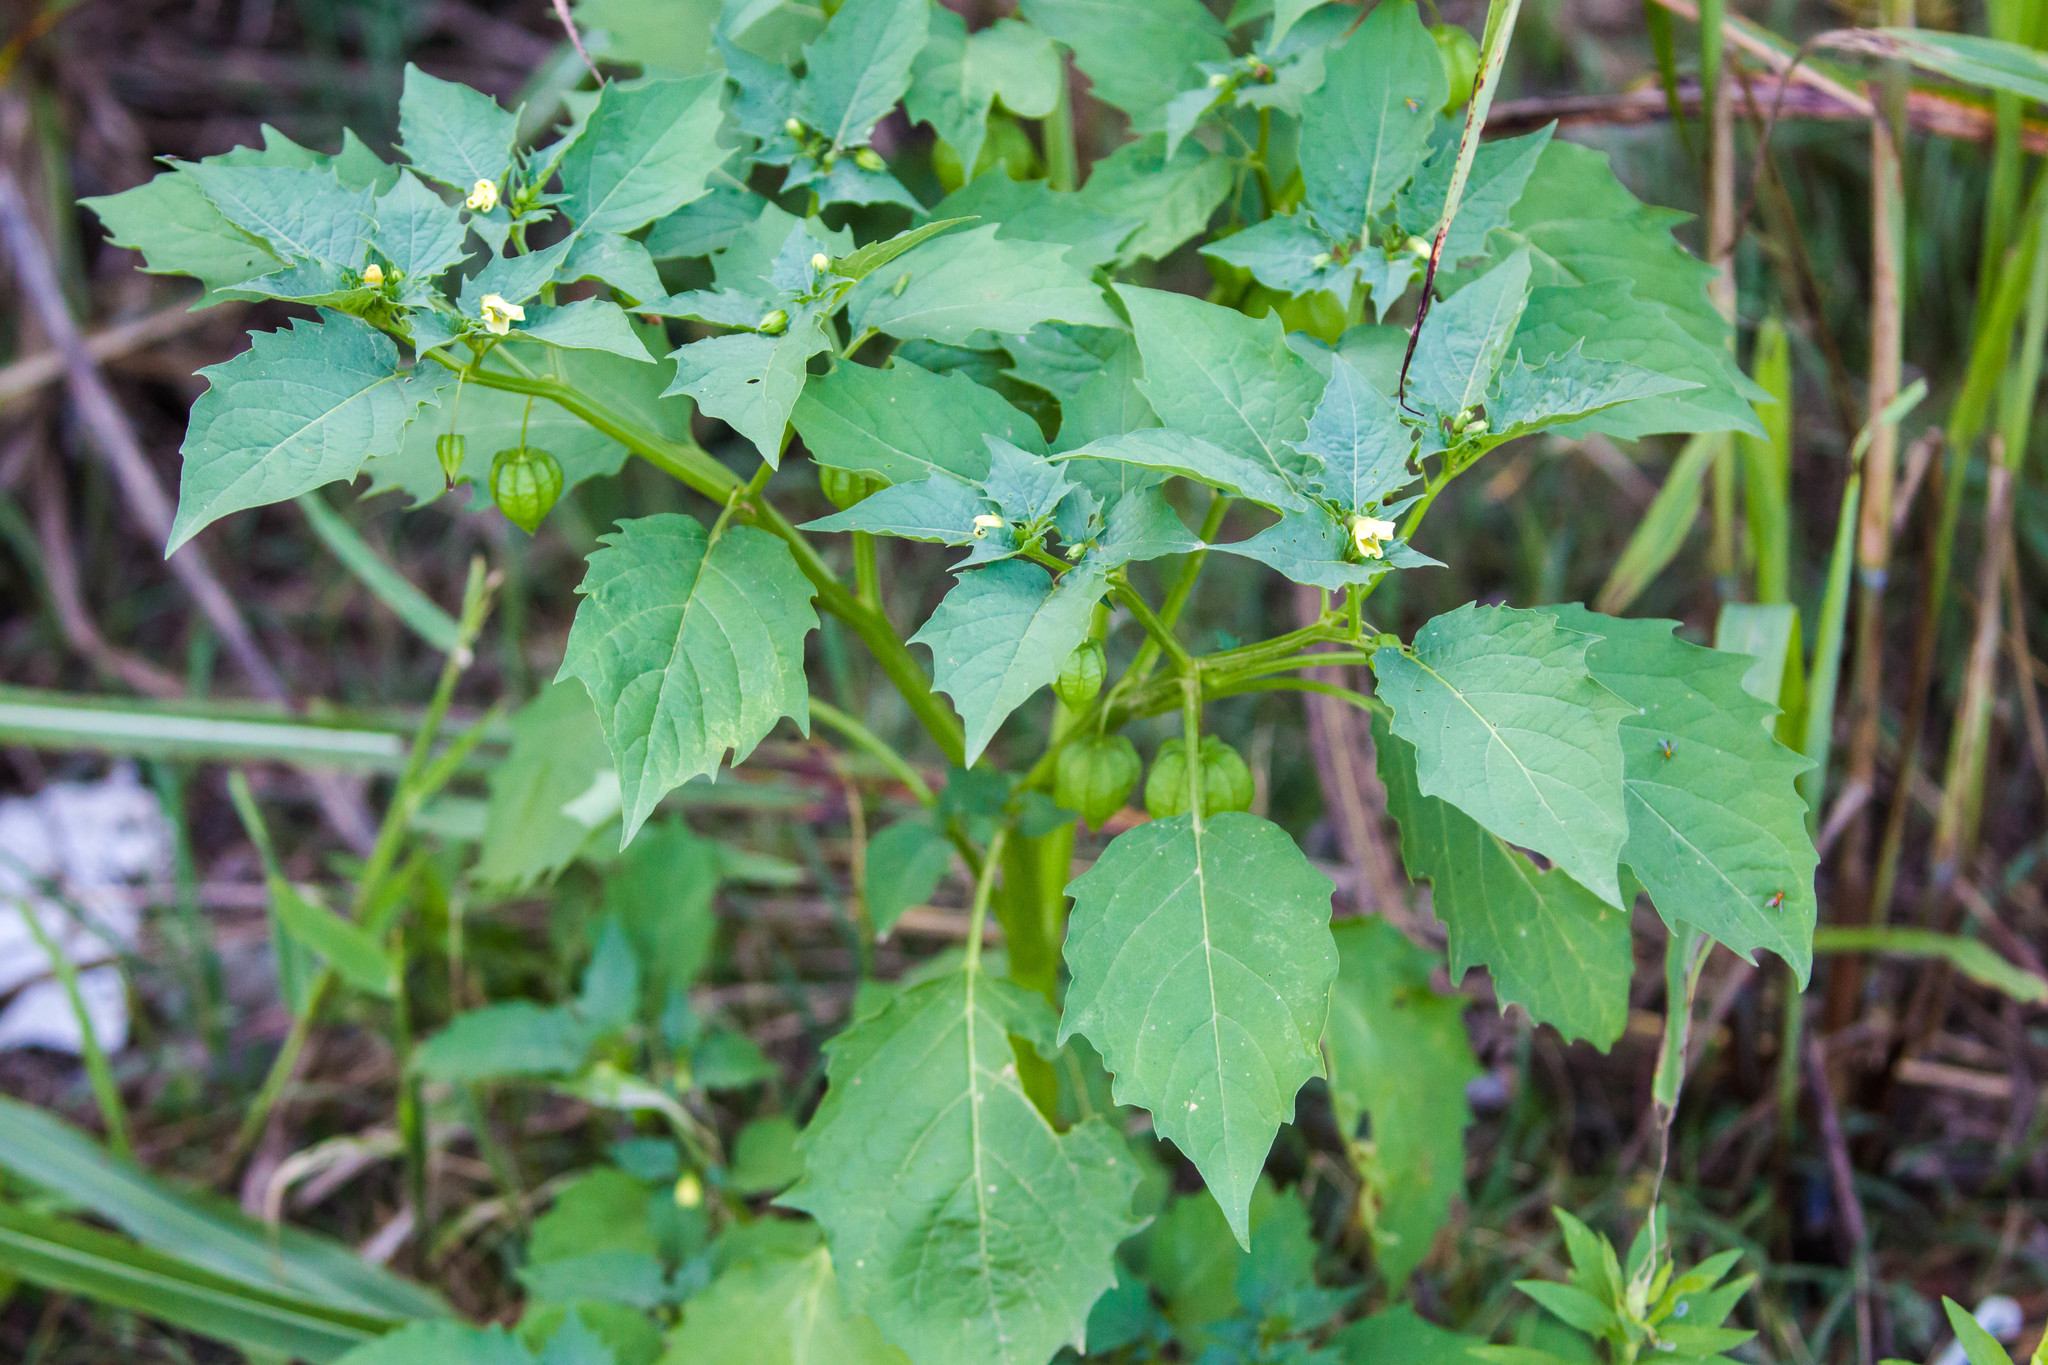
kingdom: Plantae
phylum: Tracheophyta
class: Magnoliopsida
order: Solanales
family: Solanaceae
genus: Physalis
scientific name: Physalis angulata
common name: Angular winter-cherry
